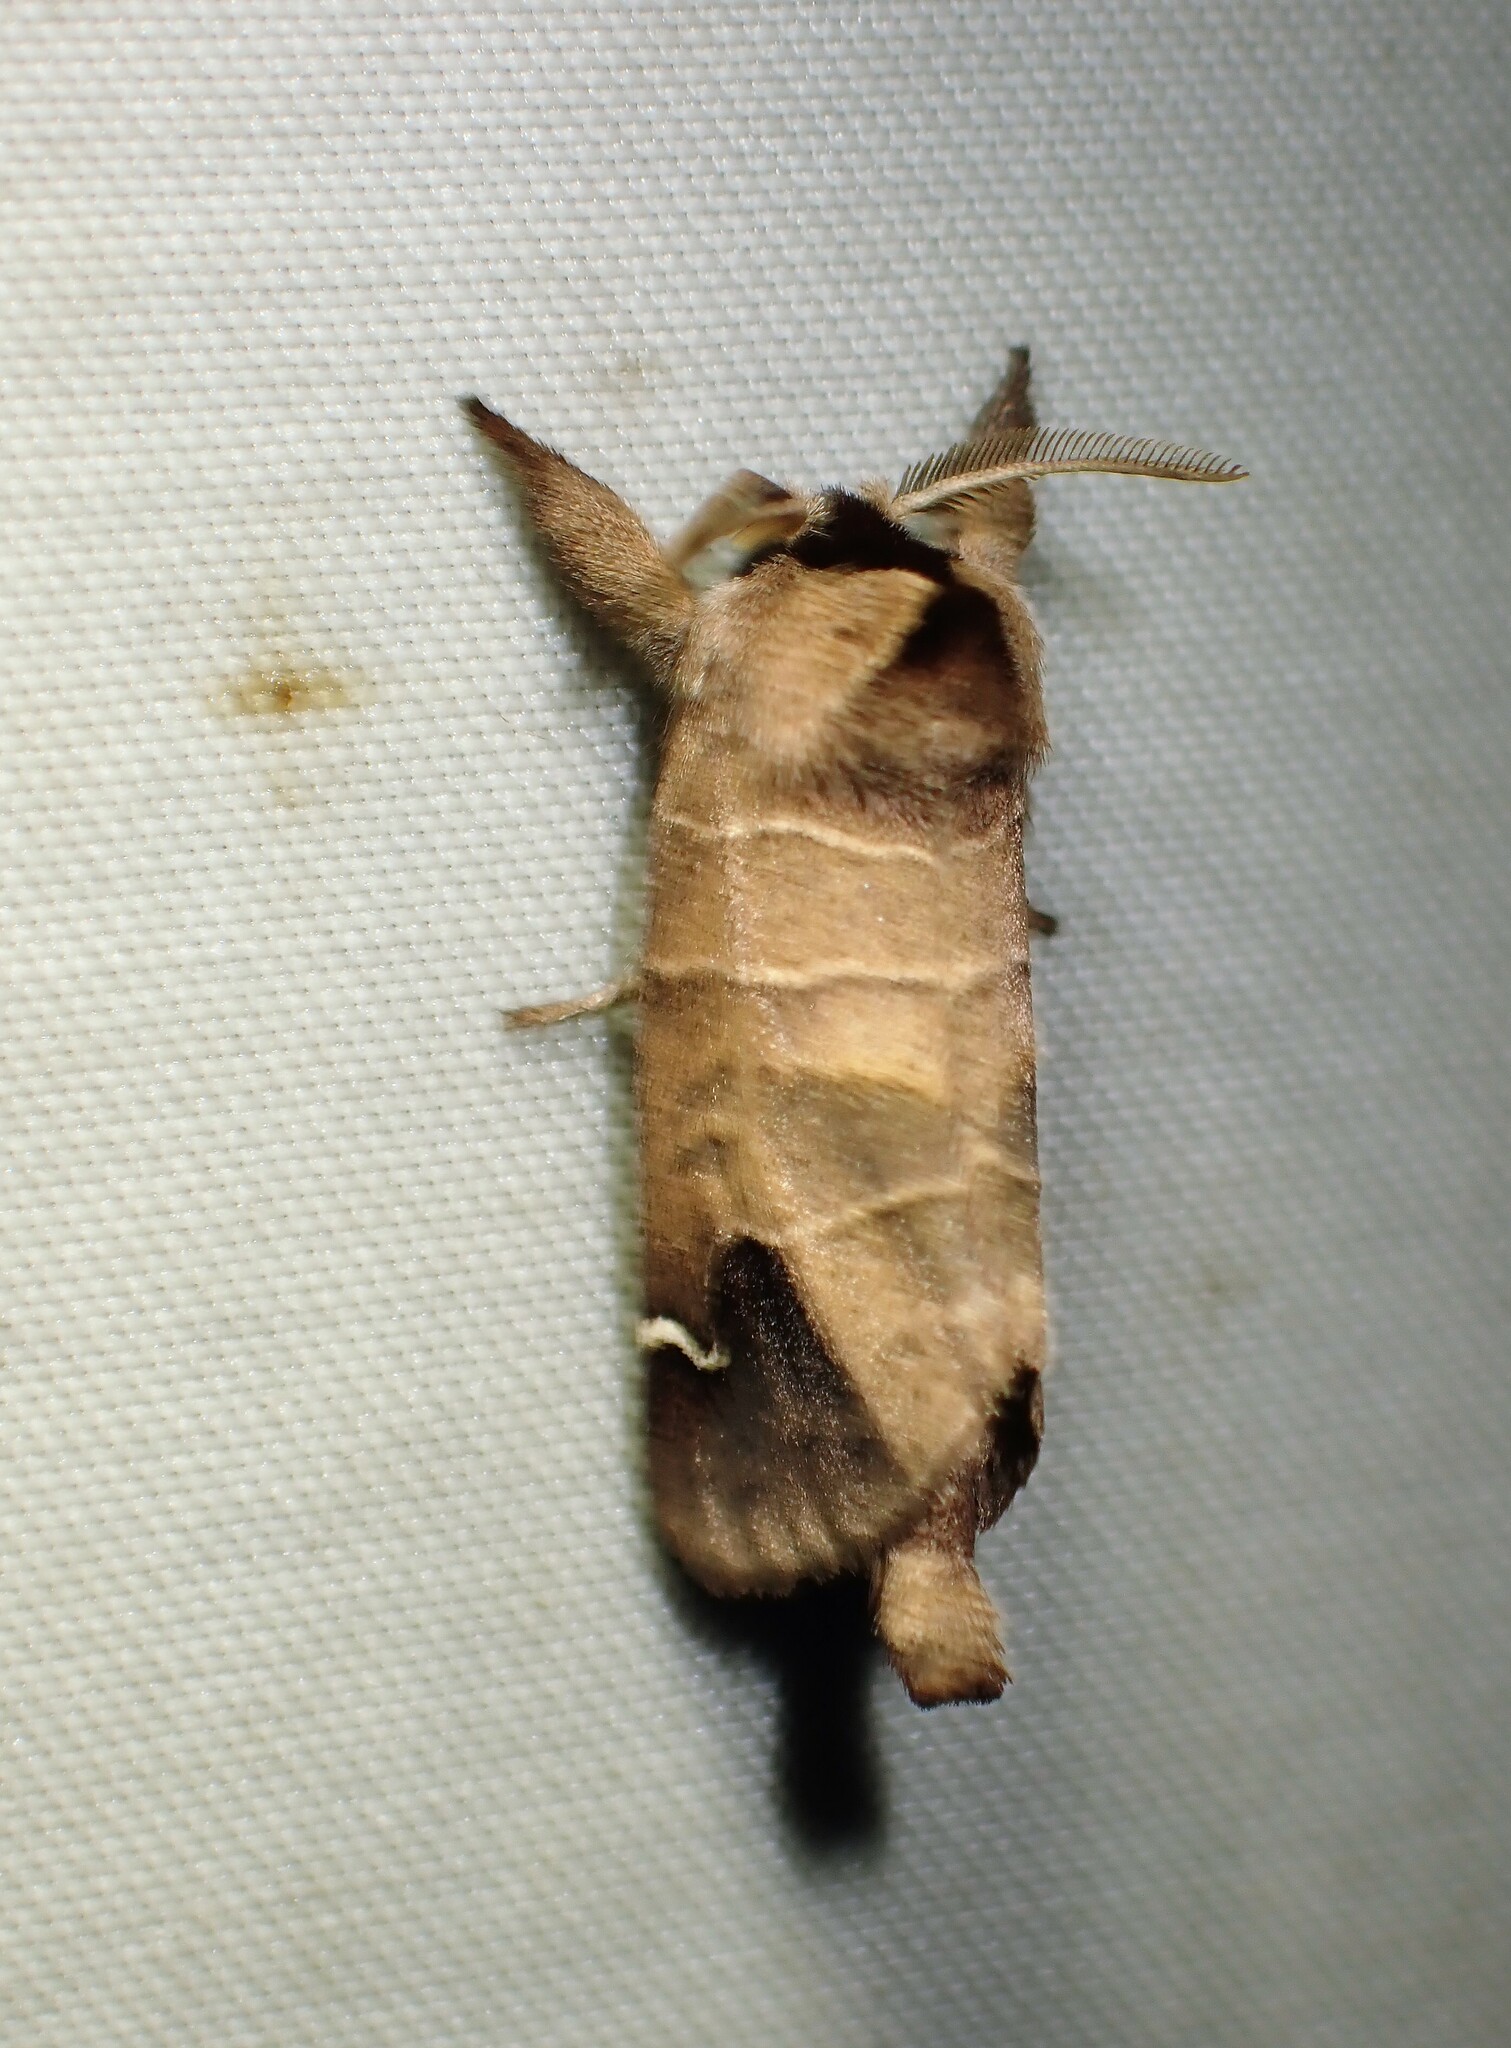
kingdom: Animalia
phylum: Arthropoda
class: Insecta
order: Lepidoptera
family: Notodontidae
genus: Clostera
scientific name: Clostera albosigma
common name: Sigmoid prominent
